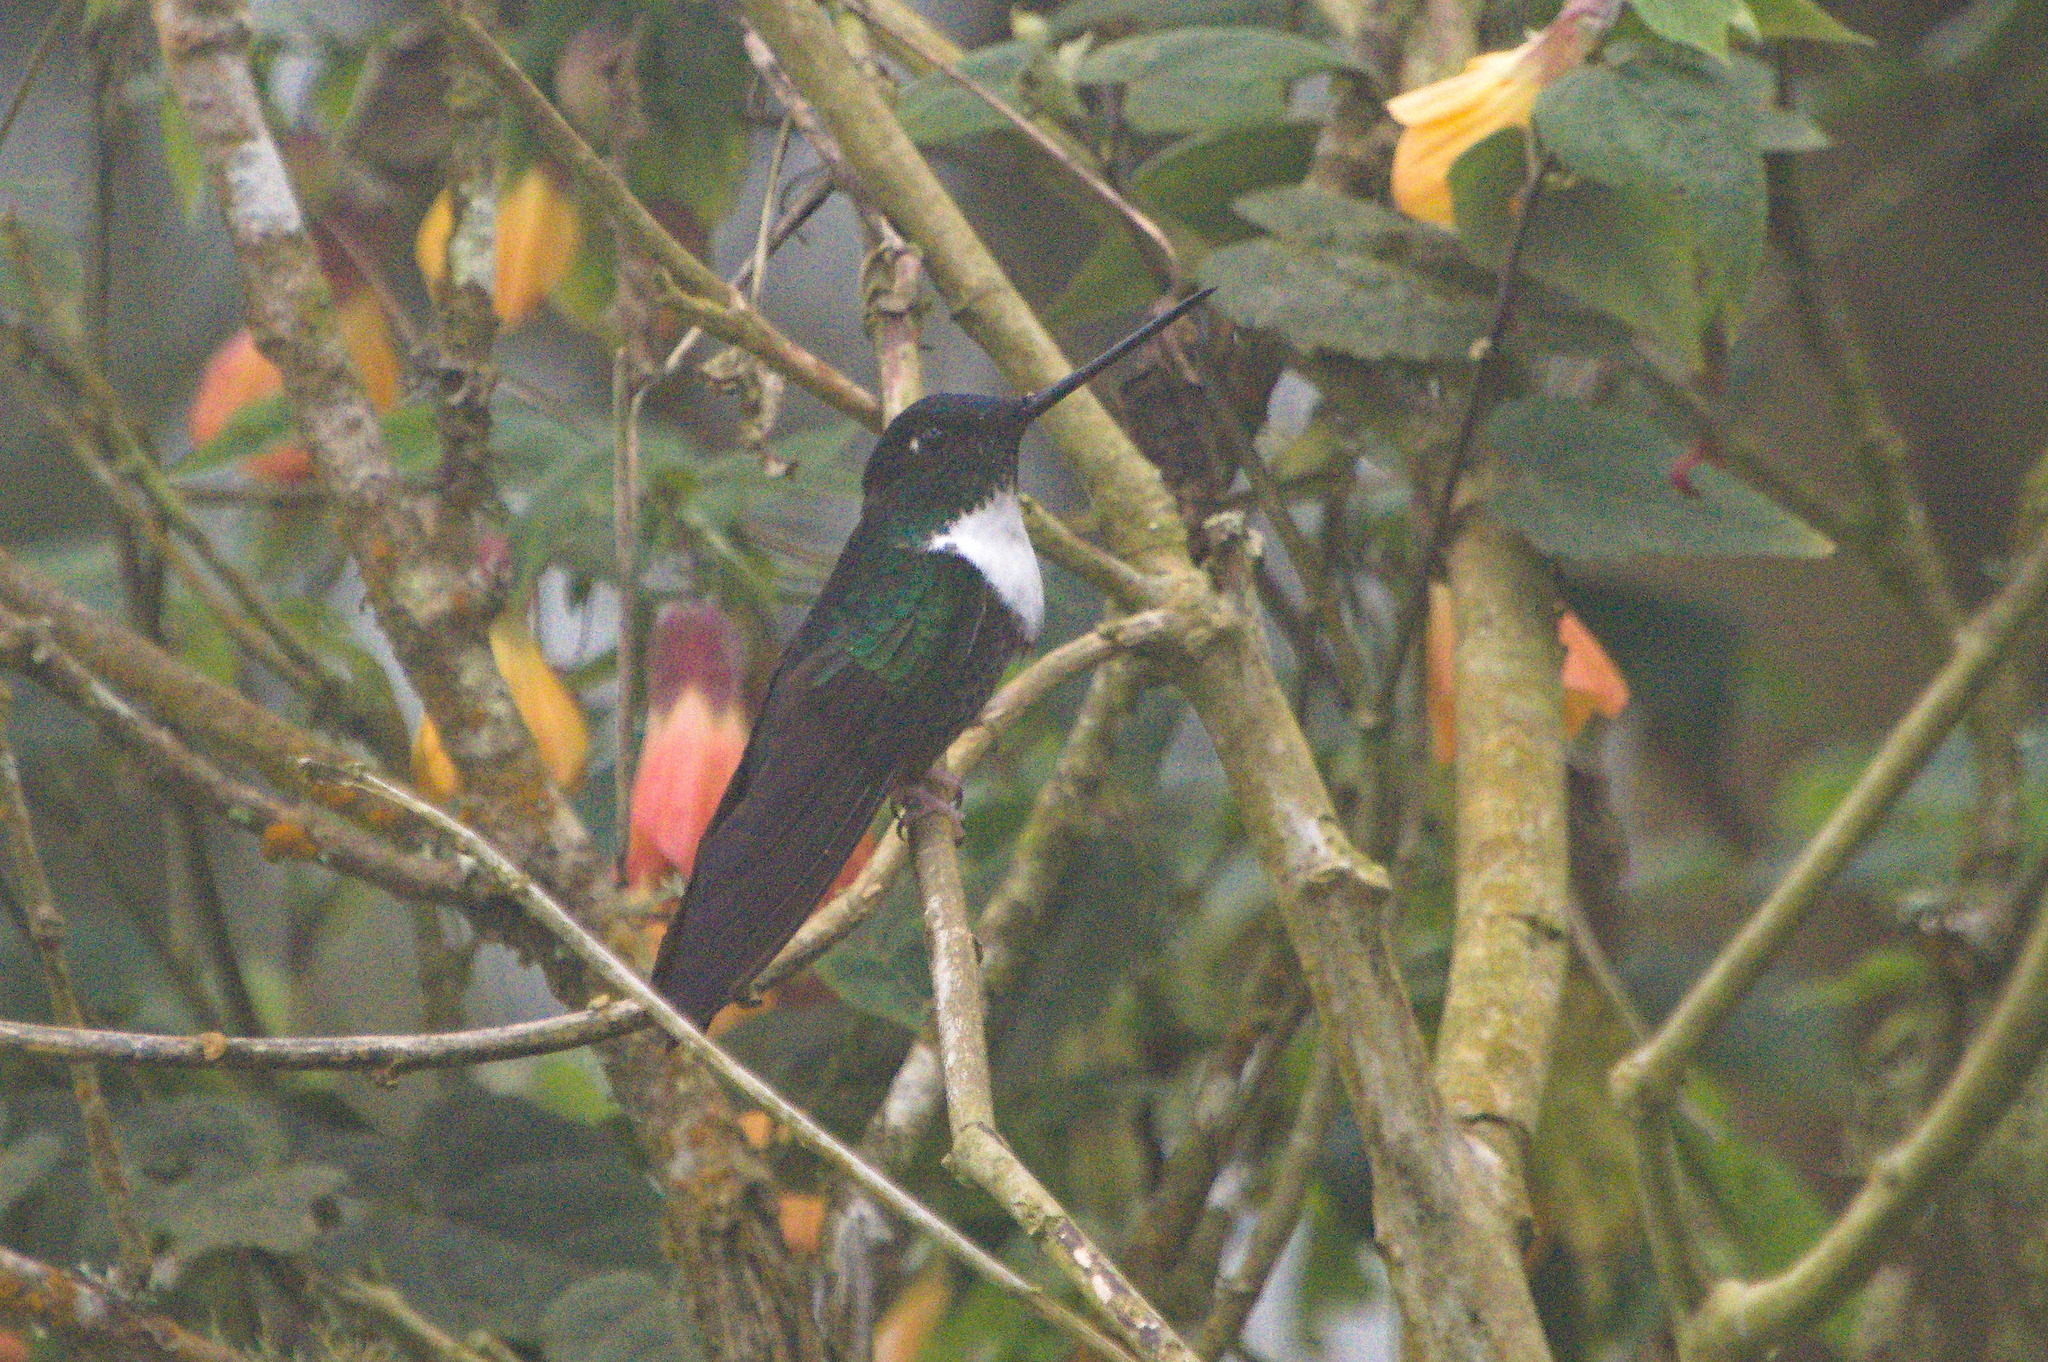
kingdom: Animalia
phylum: Chordata
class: Aves
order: Apodiformes
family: Trochilidae
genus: Coeligena
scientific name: Coeligena torquata
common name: Collared inca
